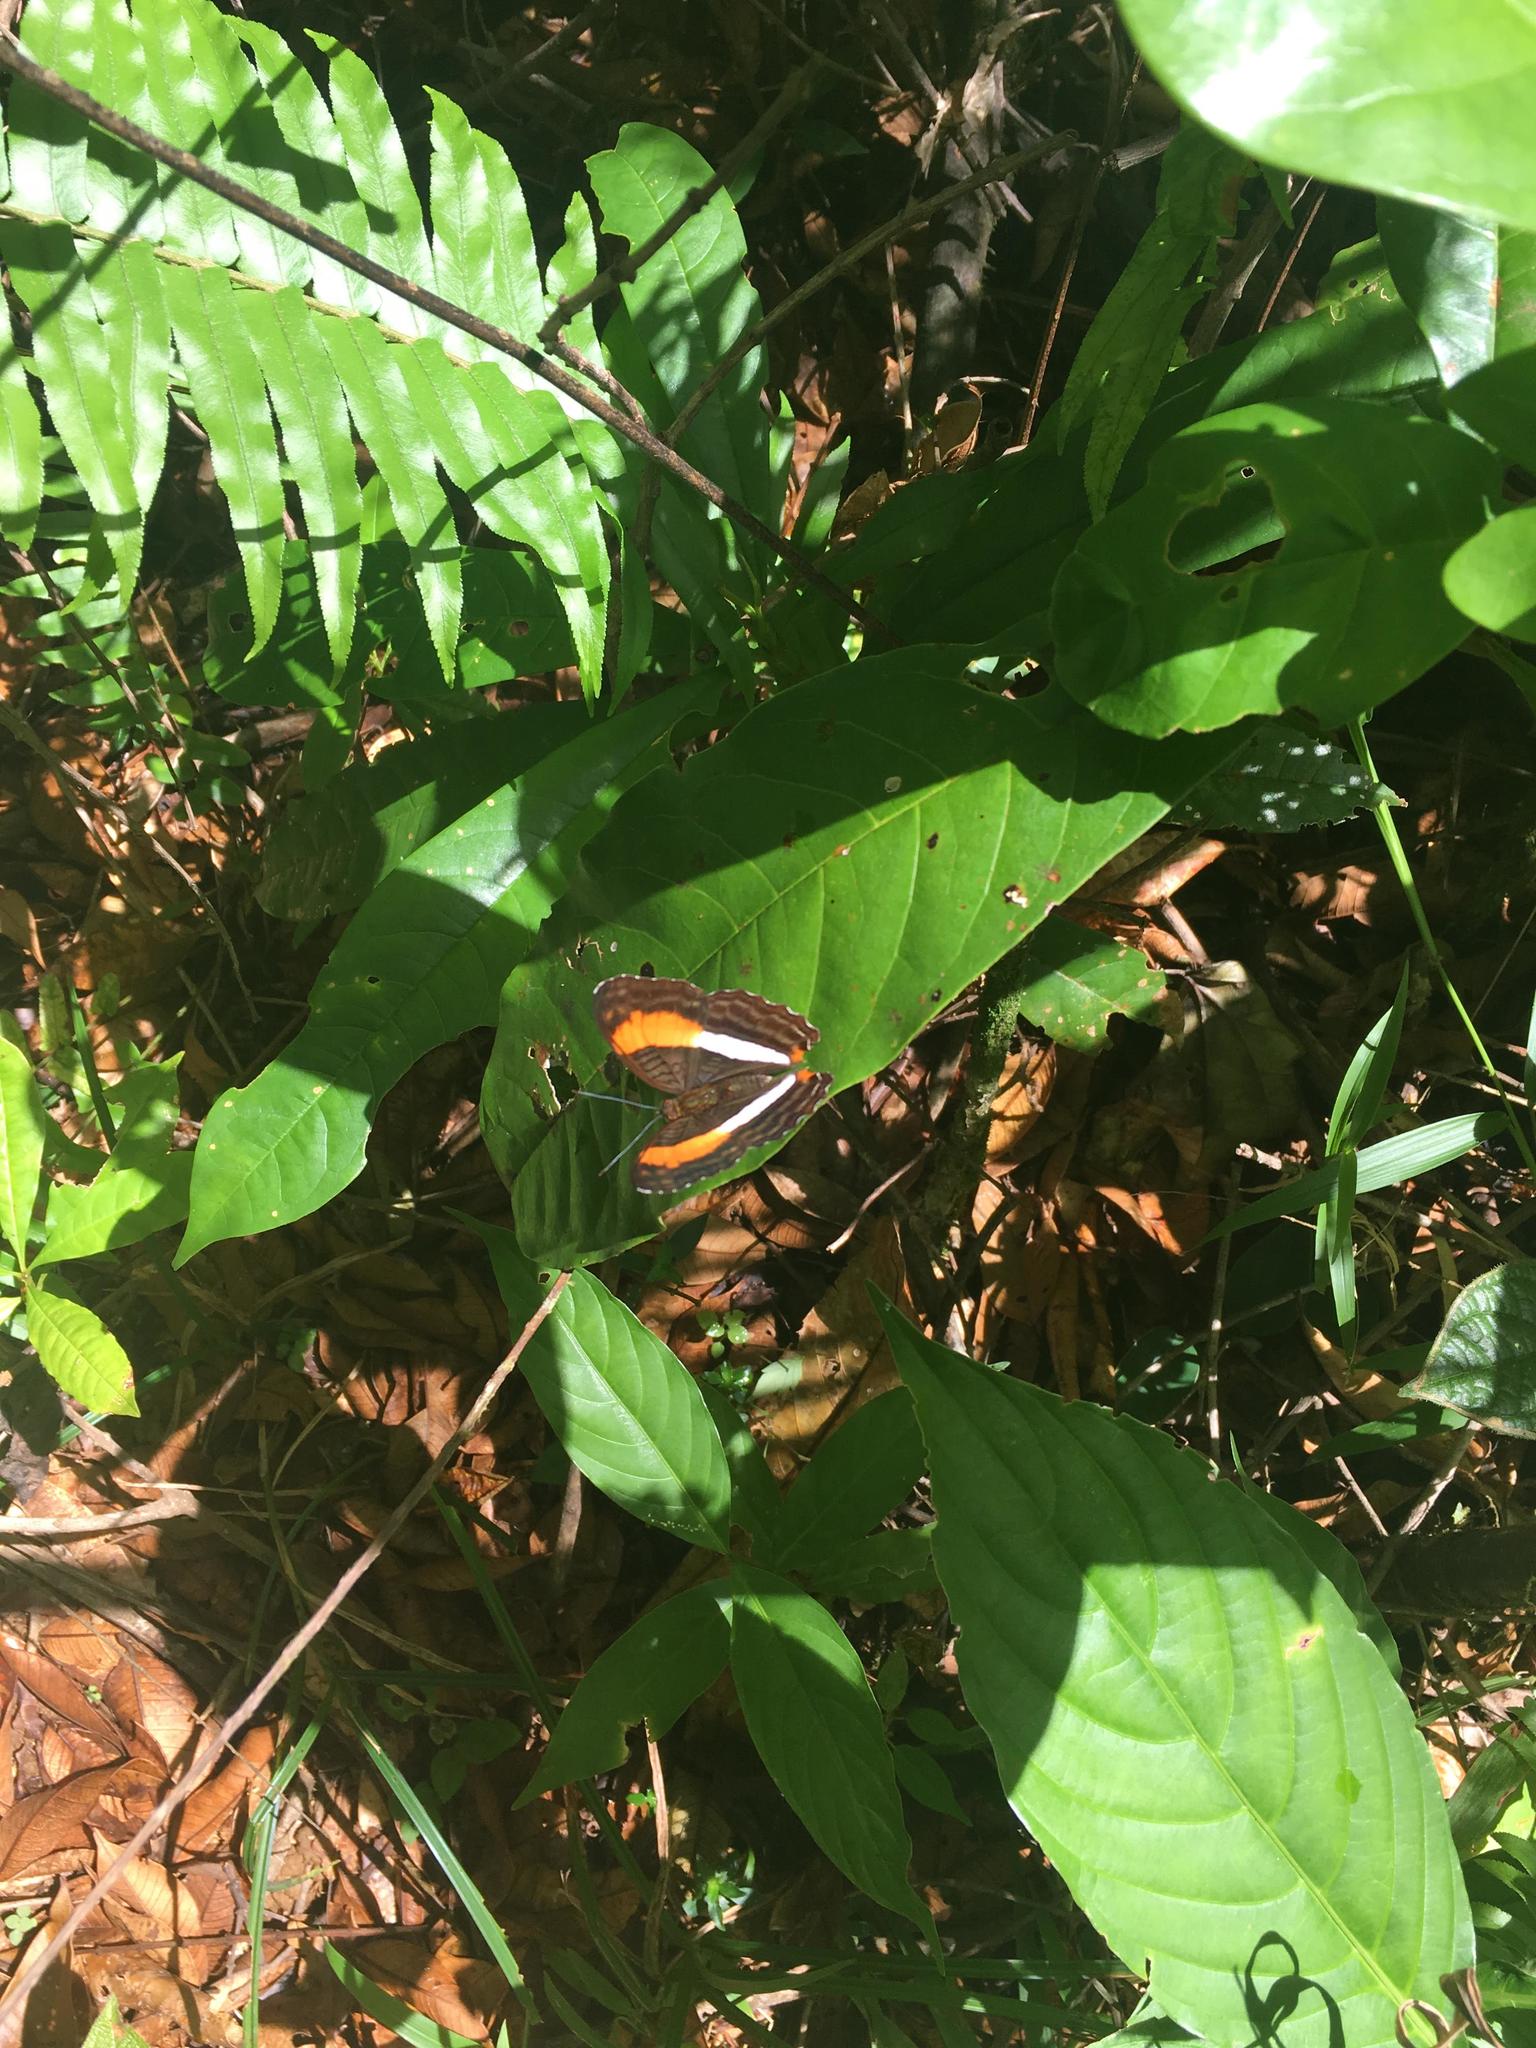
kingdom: Animalia
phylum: Arthropoda
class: Insecta
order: Lepidoptera
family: Nymphalidae
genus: Limenitis
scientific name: Limenitis cocala
